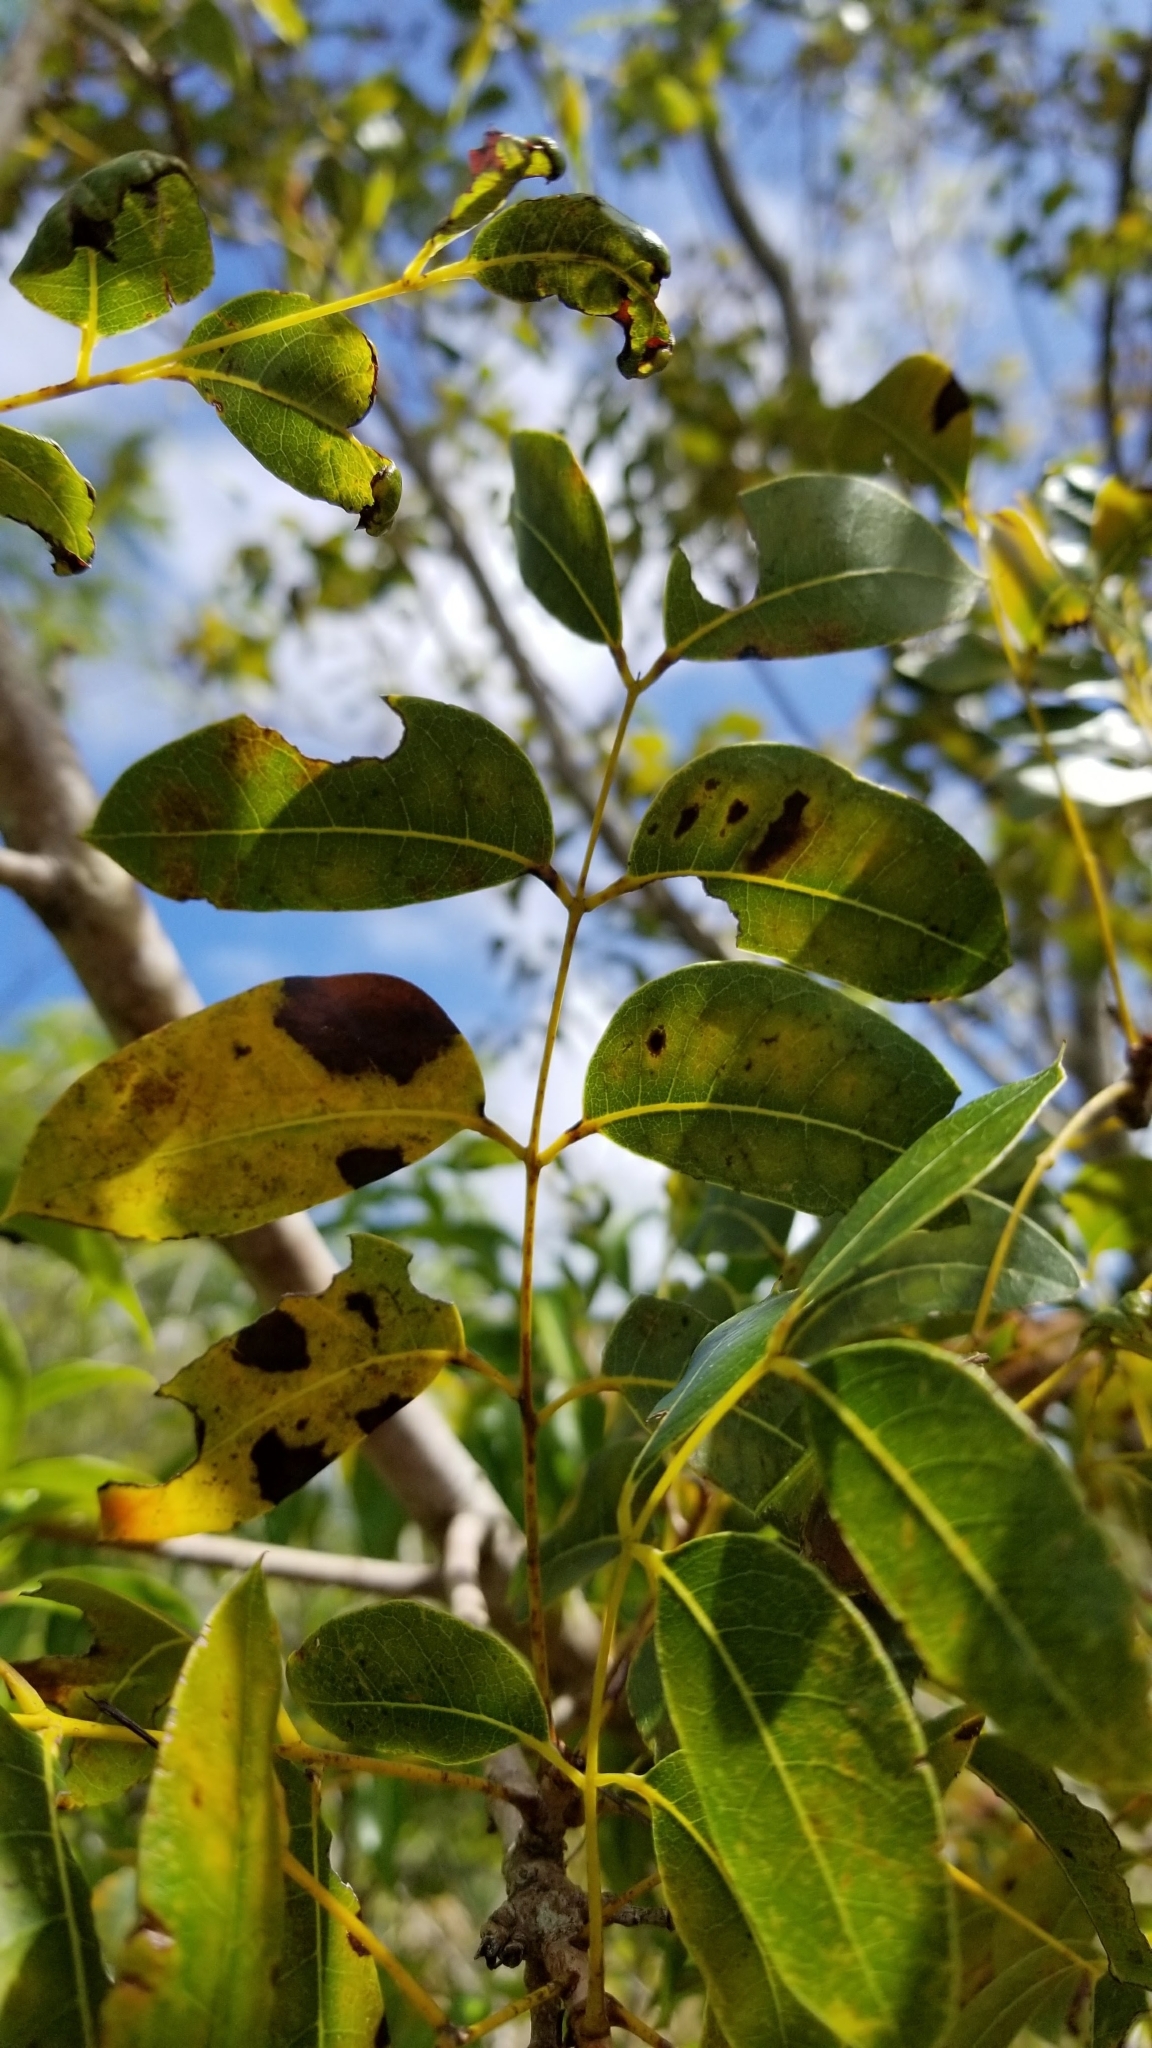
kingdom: Plantae
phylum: Tracheophyta
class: Magnoliopsida
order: Sapindales
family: Meliaceae
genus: Swietenia
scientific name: Swietenia mahagoni
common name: West indian mahogany
